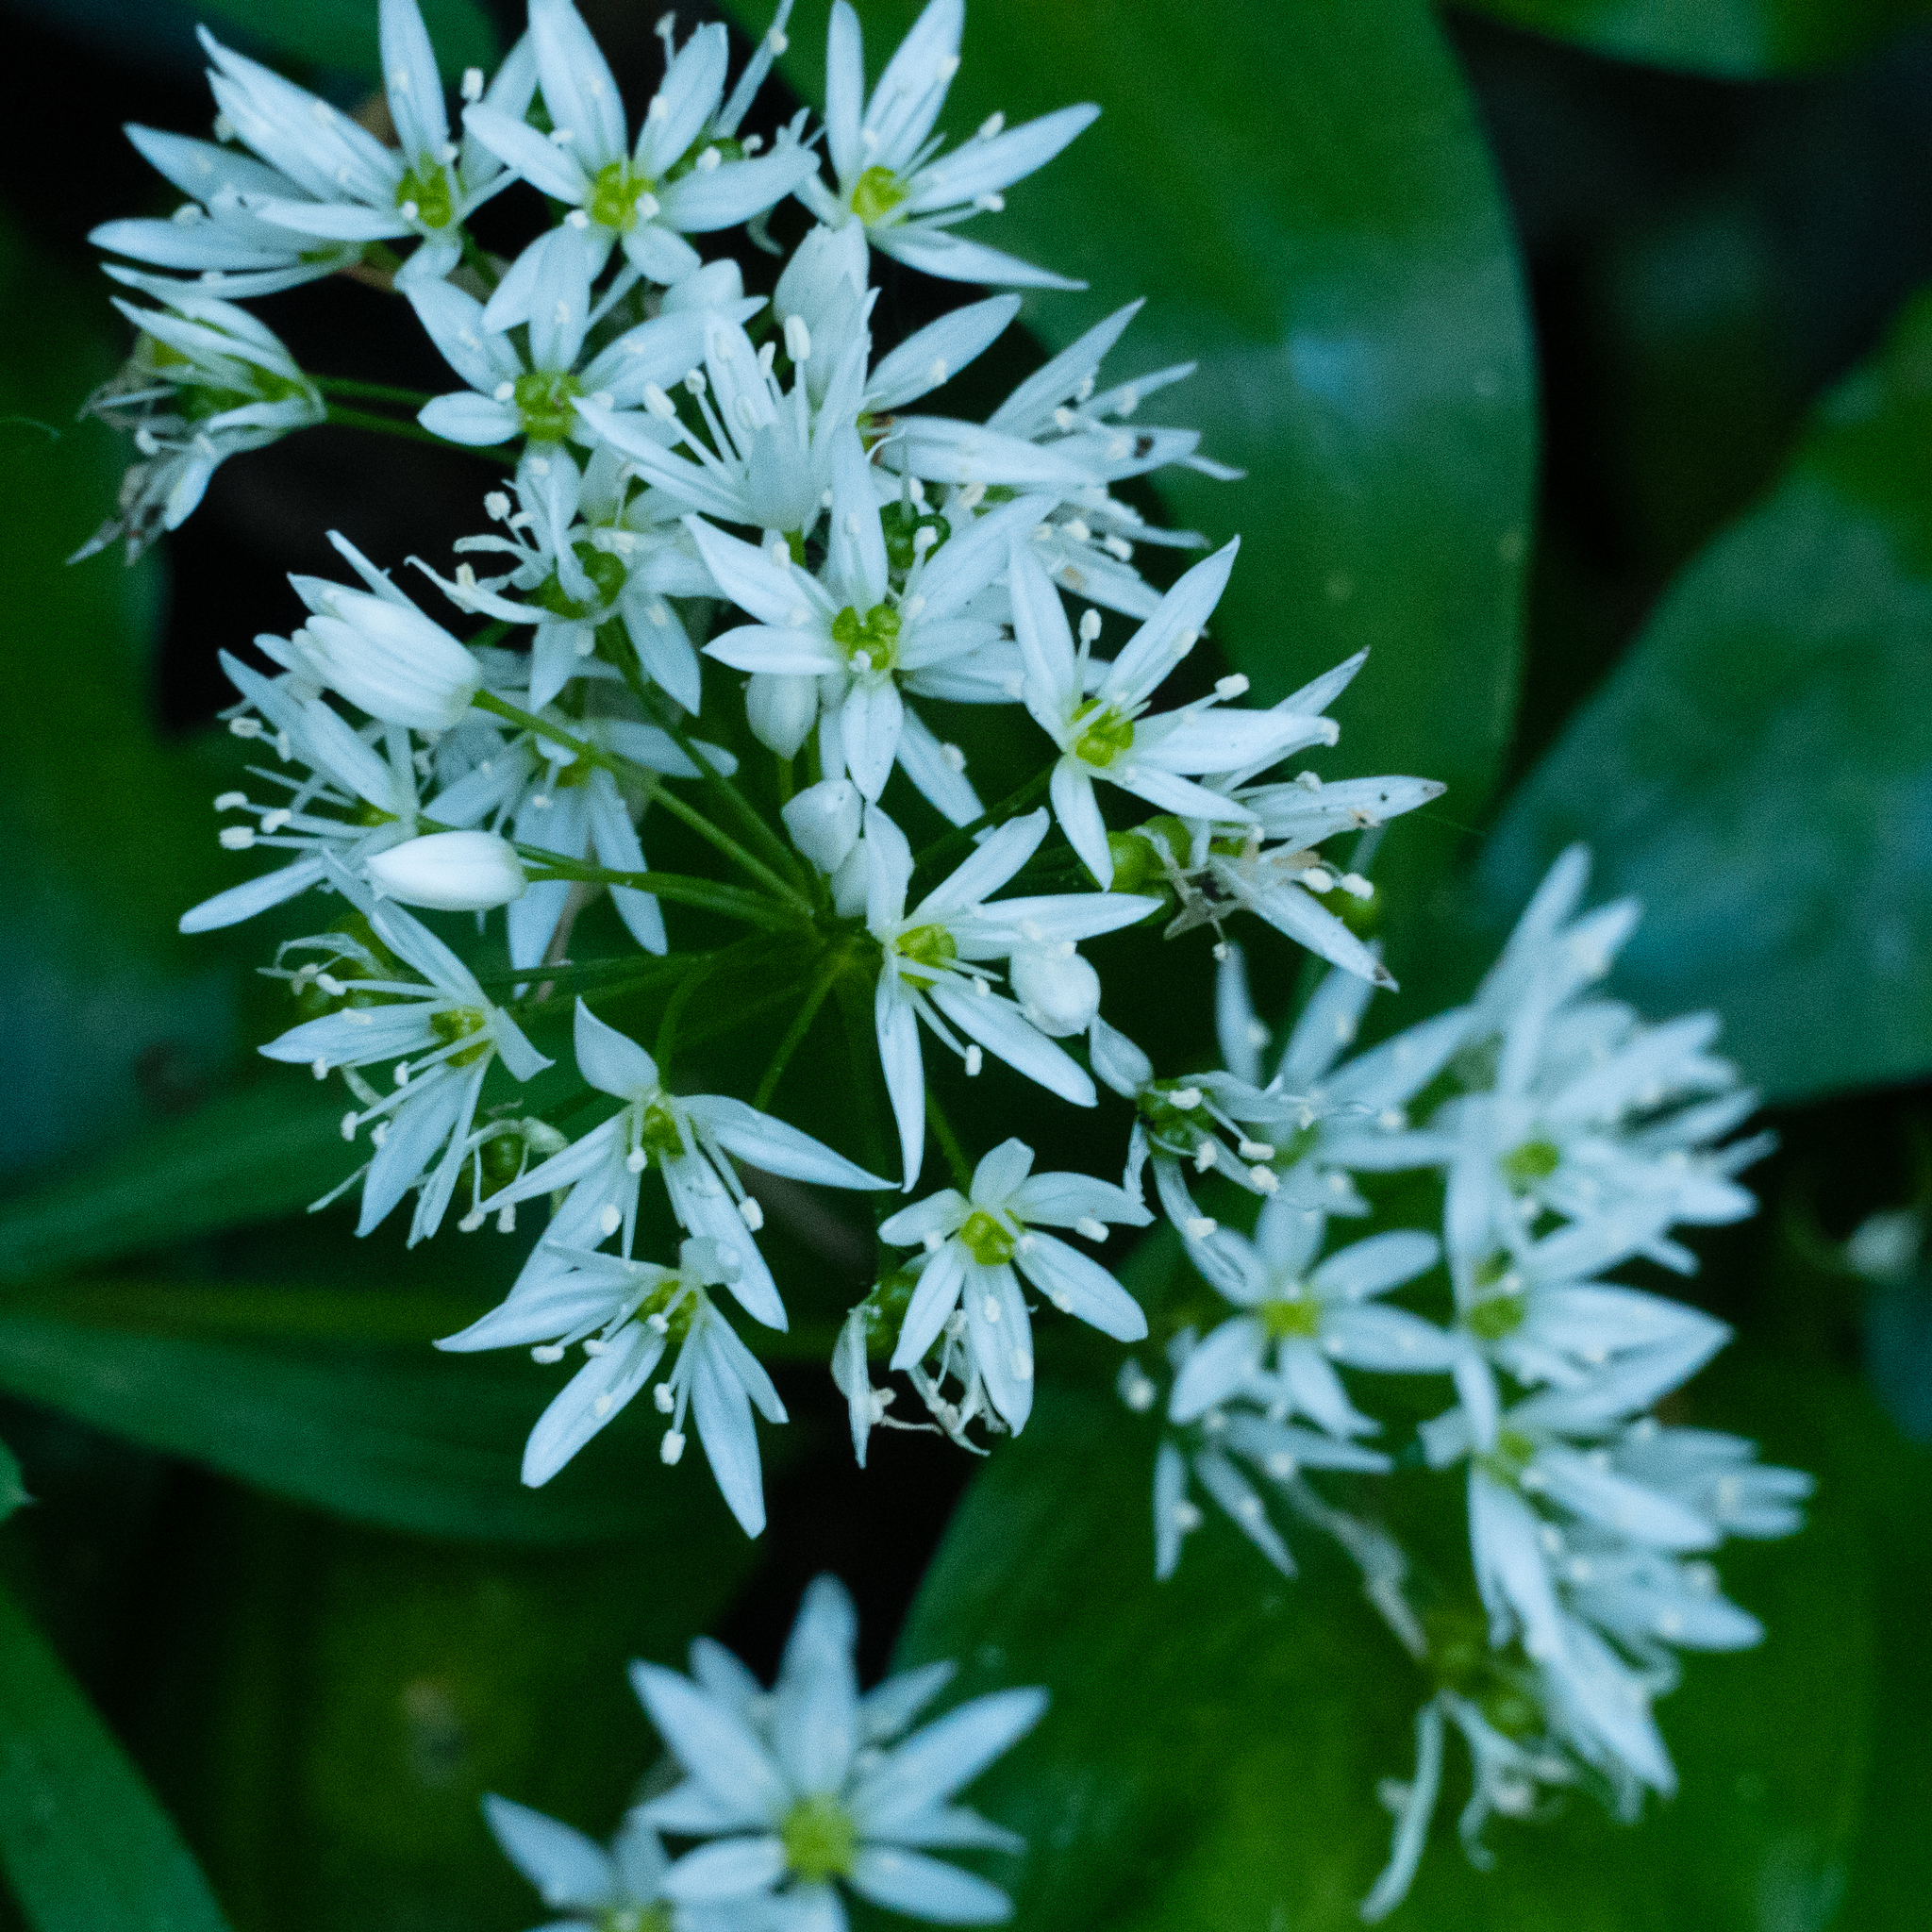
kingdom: Plantae
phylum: Tracheophyta
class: Liliopsida
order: Asparagales
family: Amaryllidaceae
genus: Allium
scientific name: Allium ursinum
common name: Ramsons
